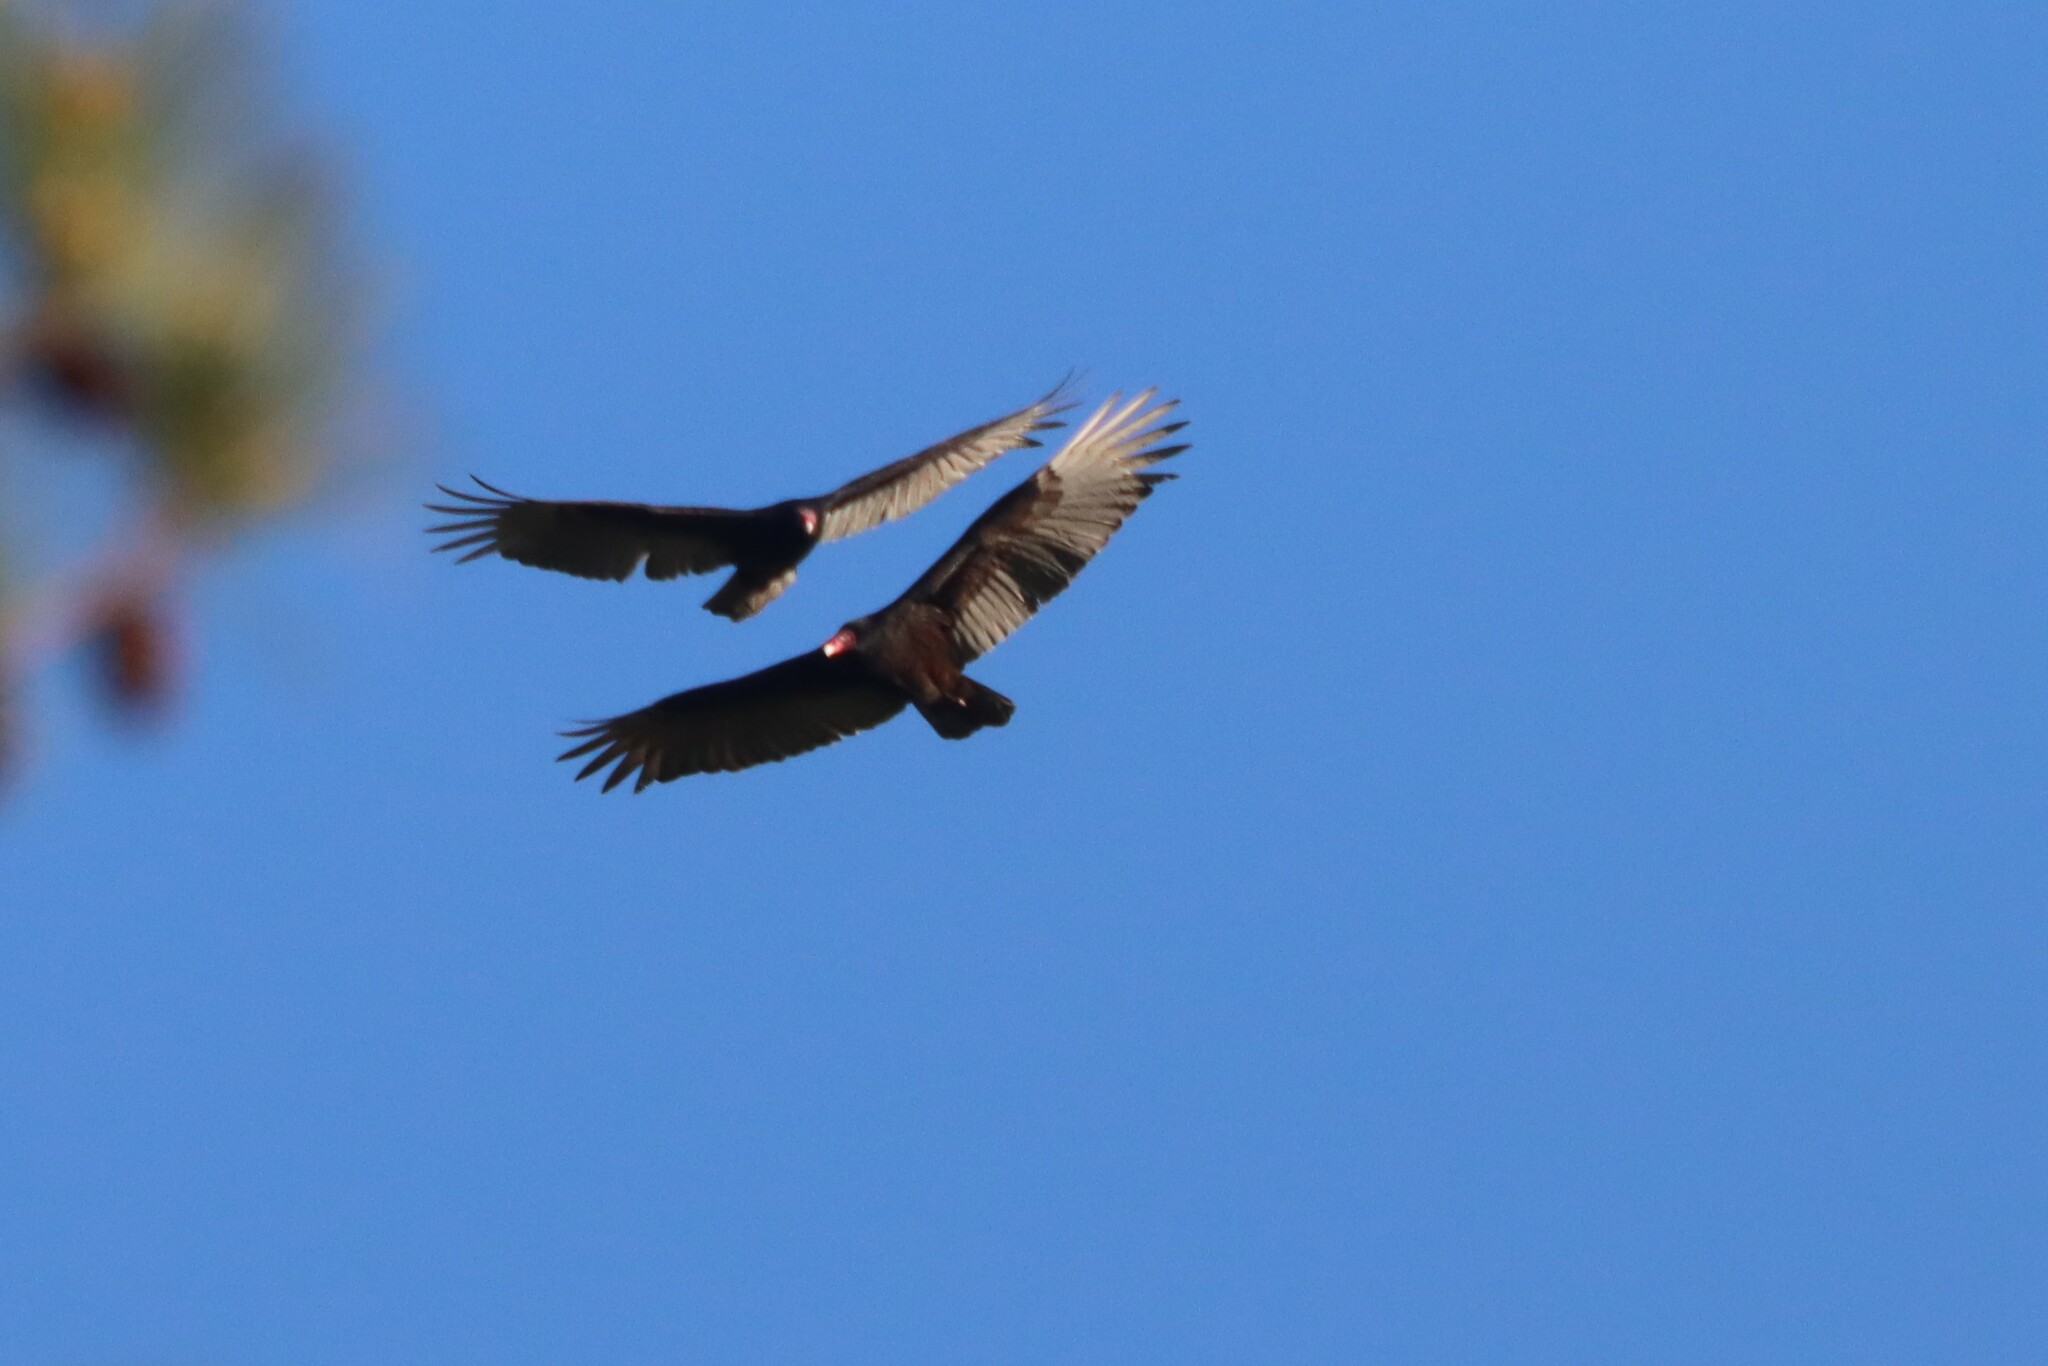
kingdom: Animalia
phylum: Chordata
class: Aves
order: Accipitriformes
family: Cathartidae
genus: Cathartes
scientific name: Cathartes aura
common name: Turkey vulture
